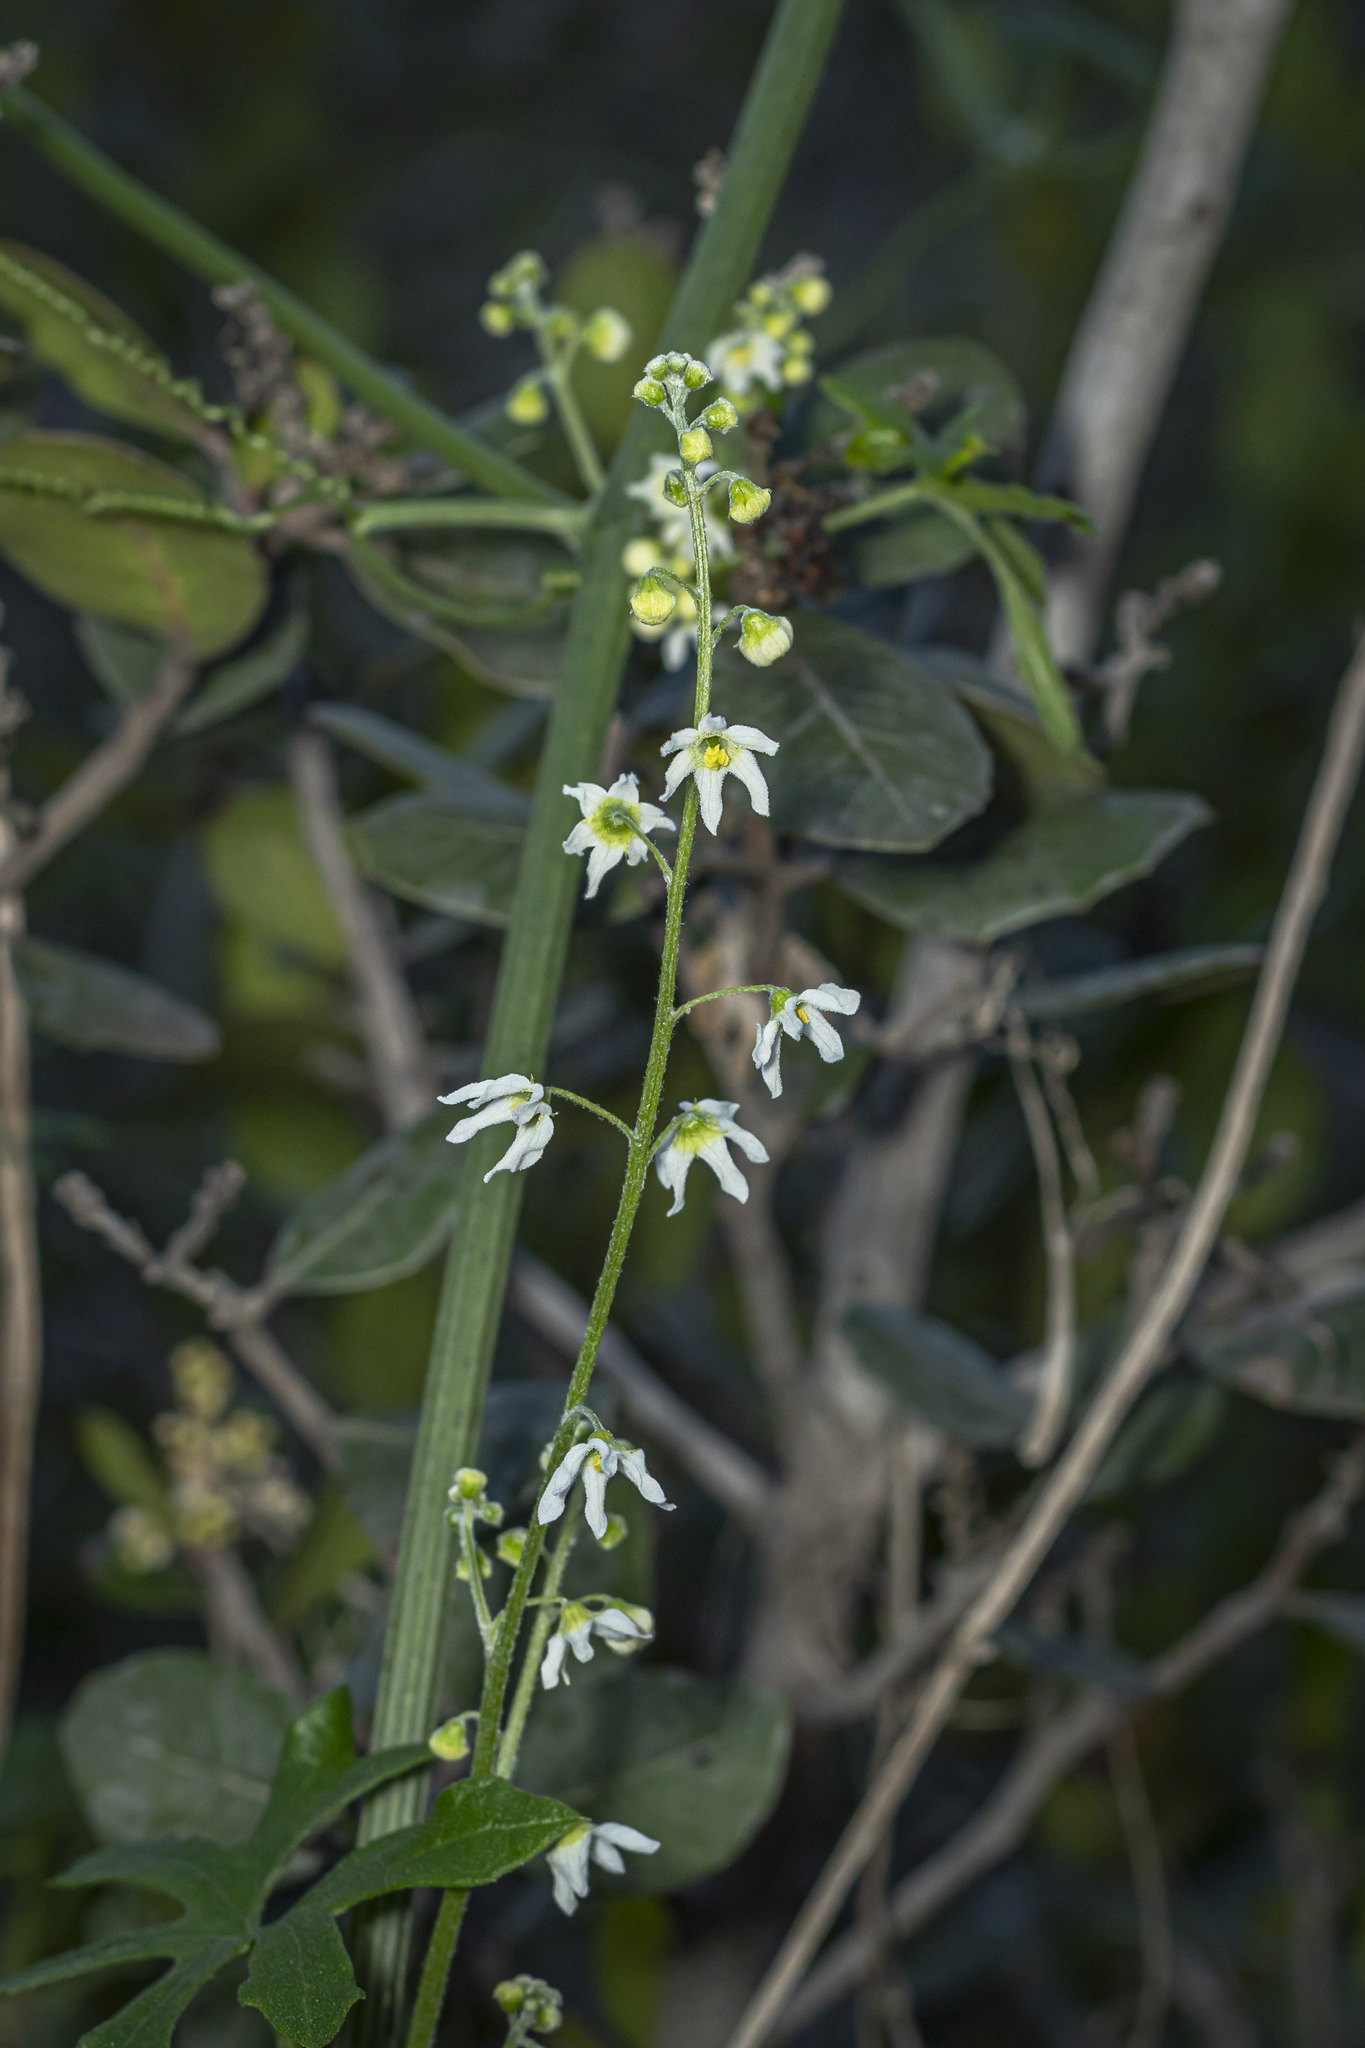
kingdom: Plantae
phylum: Tracheophyta
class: Magnoliopsida
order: Cucurbitales
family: Cucurbitaceae
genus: Marah
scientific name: Marah macrocarpa
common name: Cucamonga manroot
